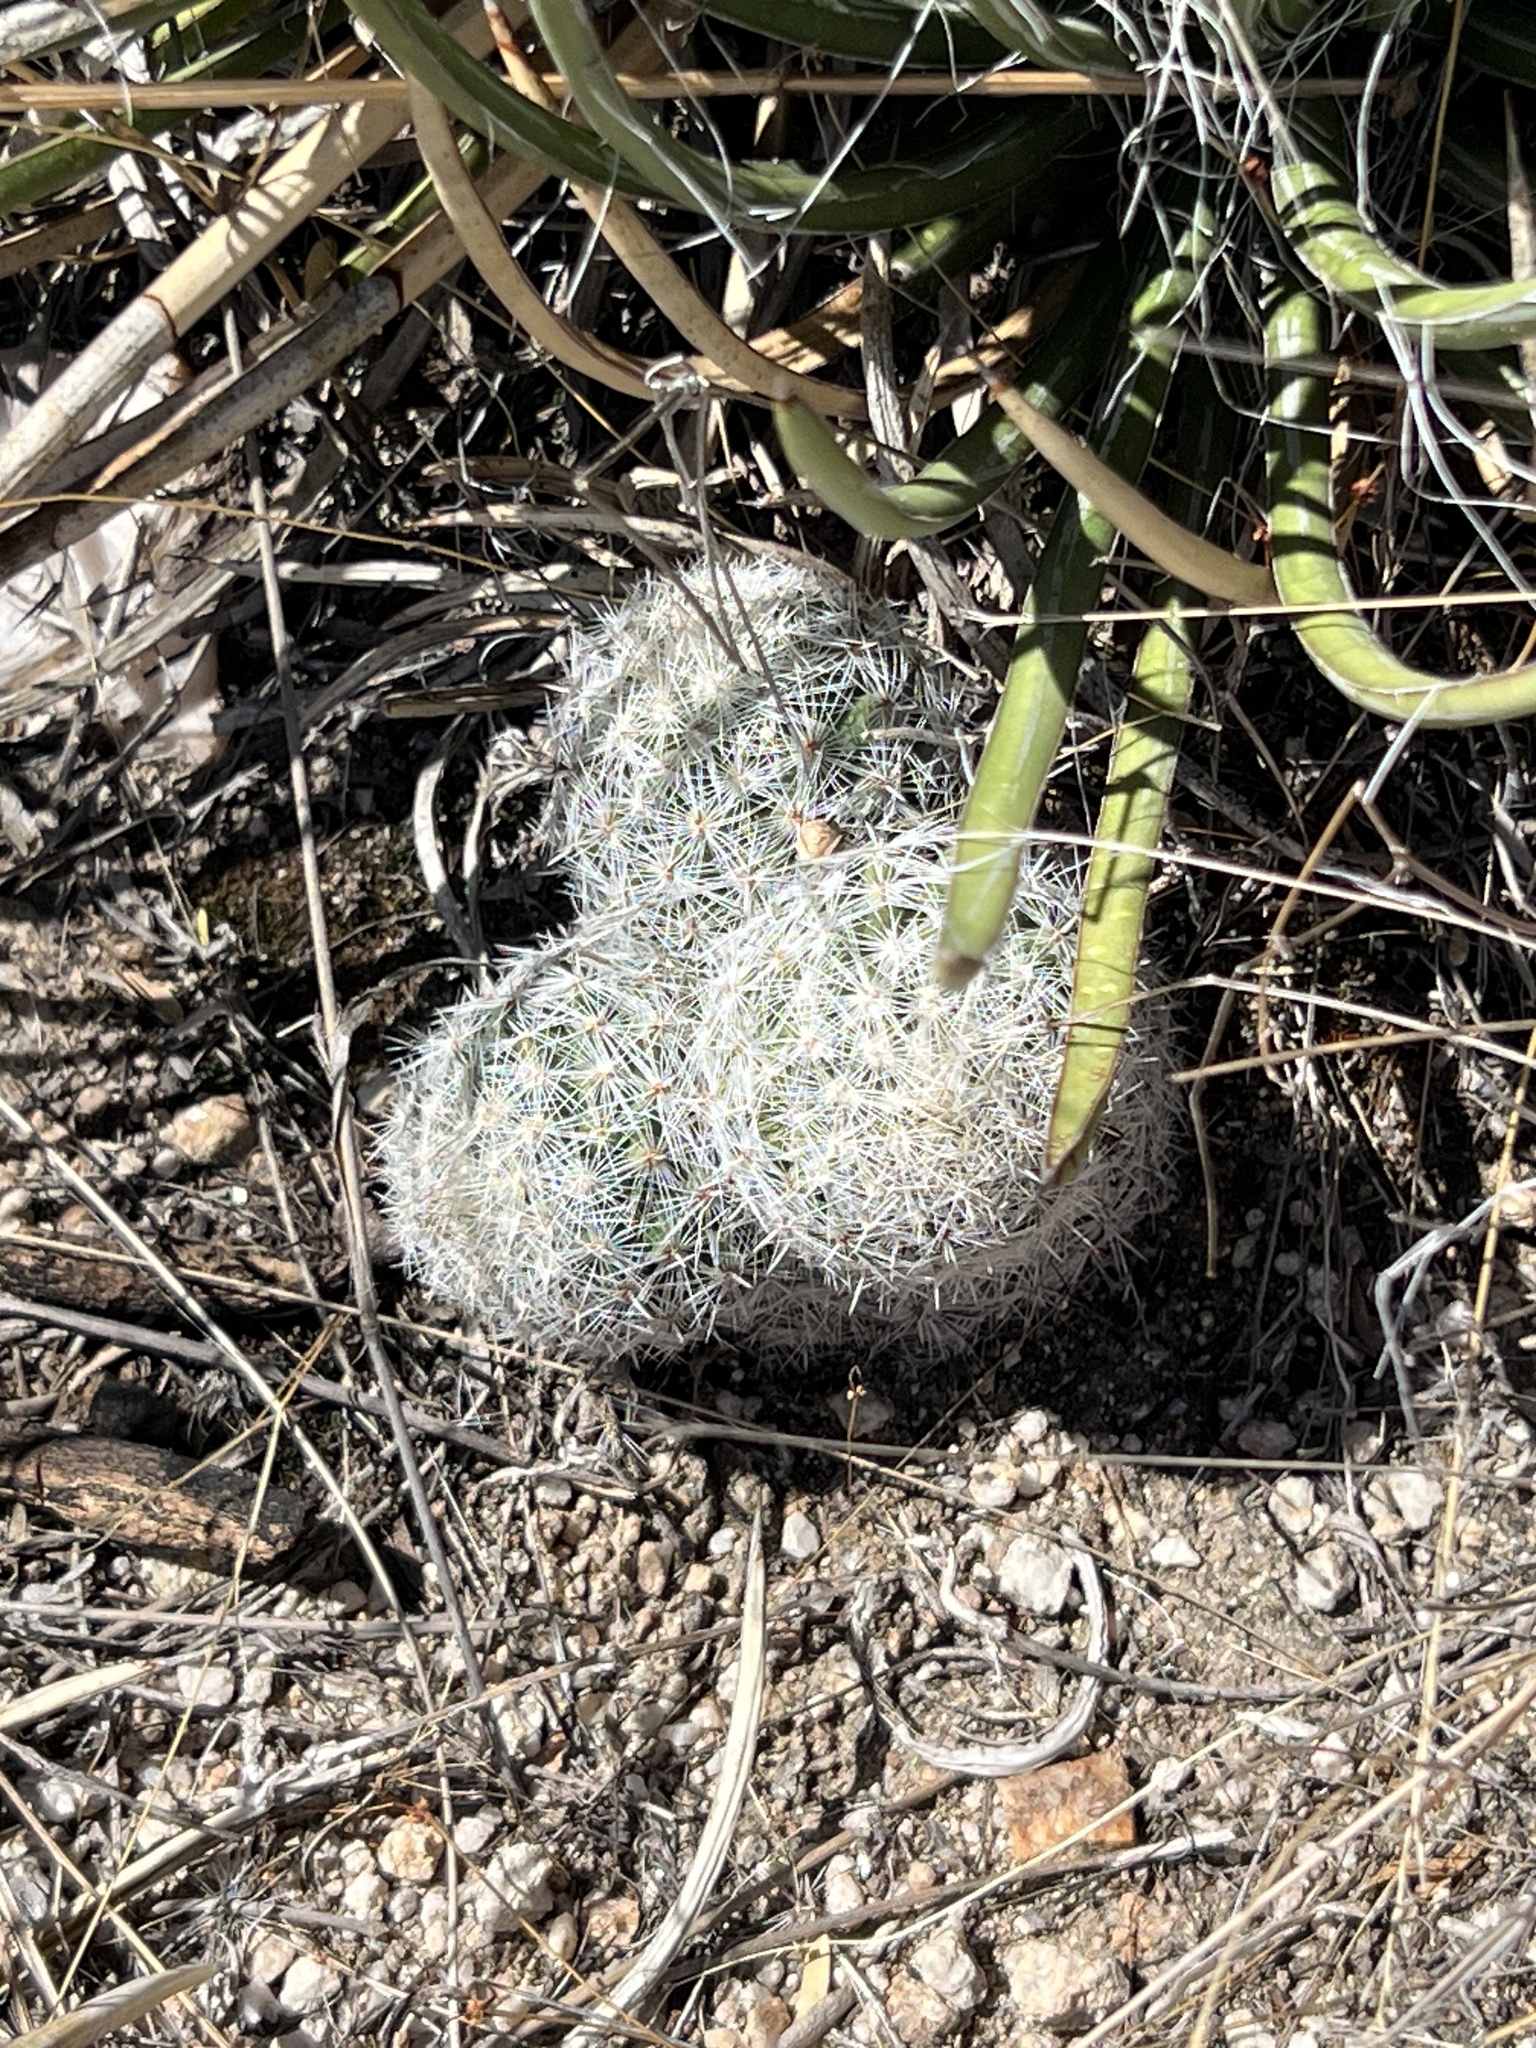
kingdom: Plantae
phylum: Tracheophyta
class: Magnoliopsida
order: Caryophyllales
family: Cactaceae
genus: Cochemiea
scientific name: Cochemiea grahamii
